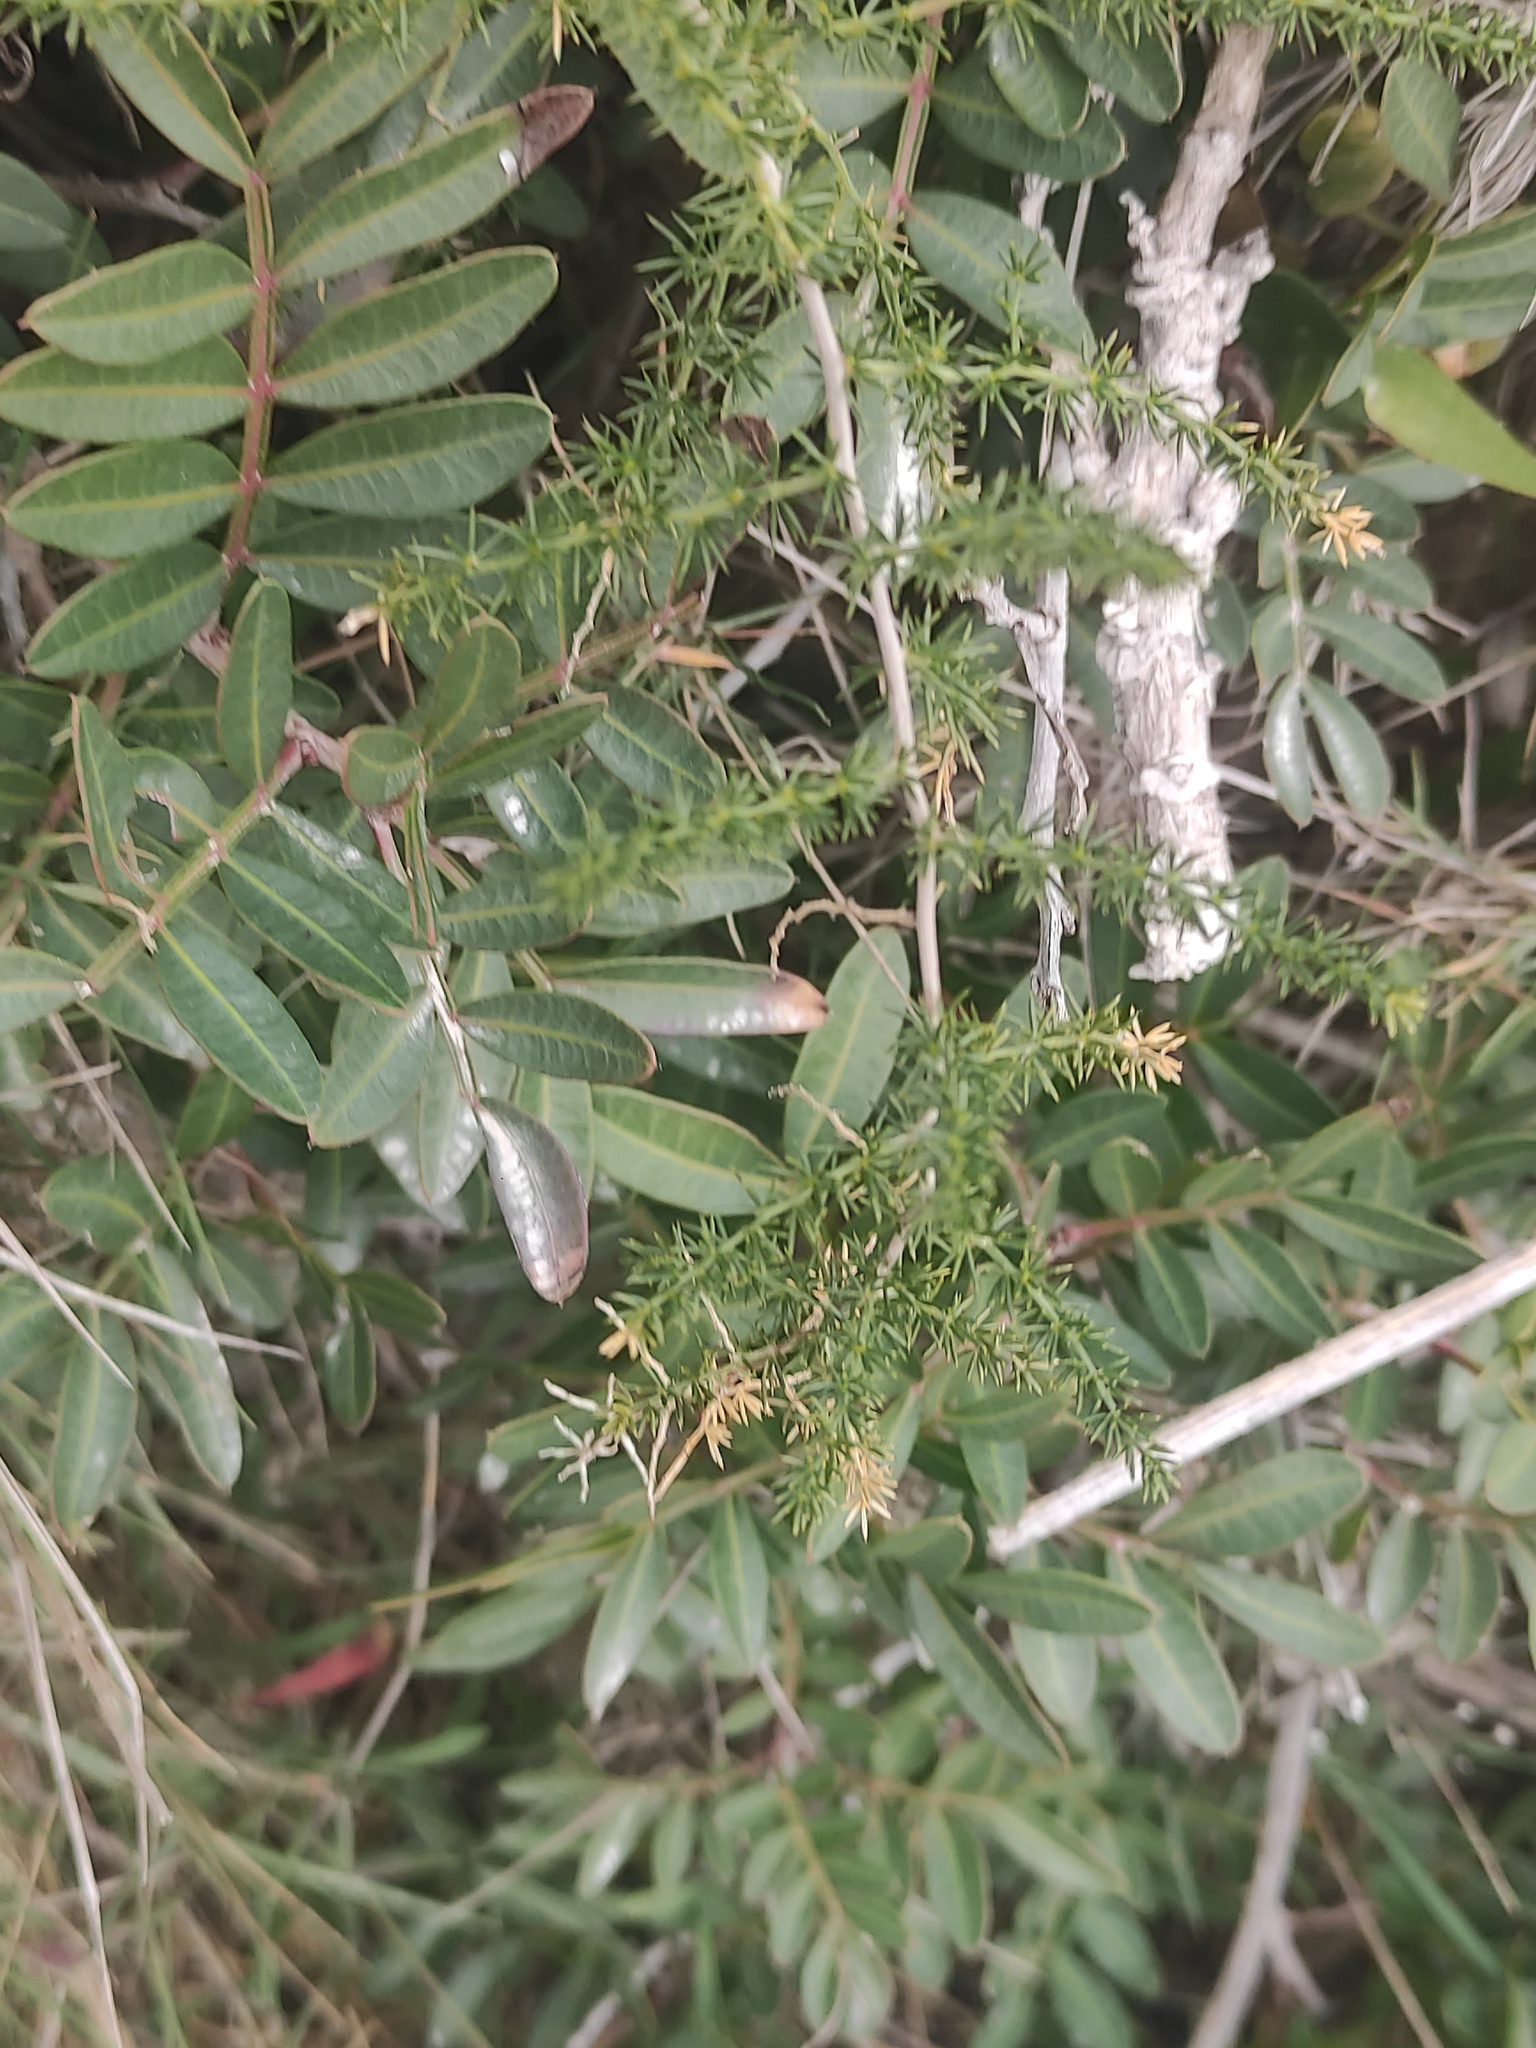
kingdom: Plantae
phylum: Tracheophyta
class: Liliopsida
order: Asparagales
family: Asparagaceae
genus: Asparagus
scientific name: Asparagus acutifolius
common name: Wild asparagus
